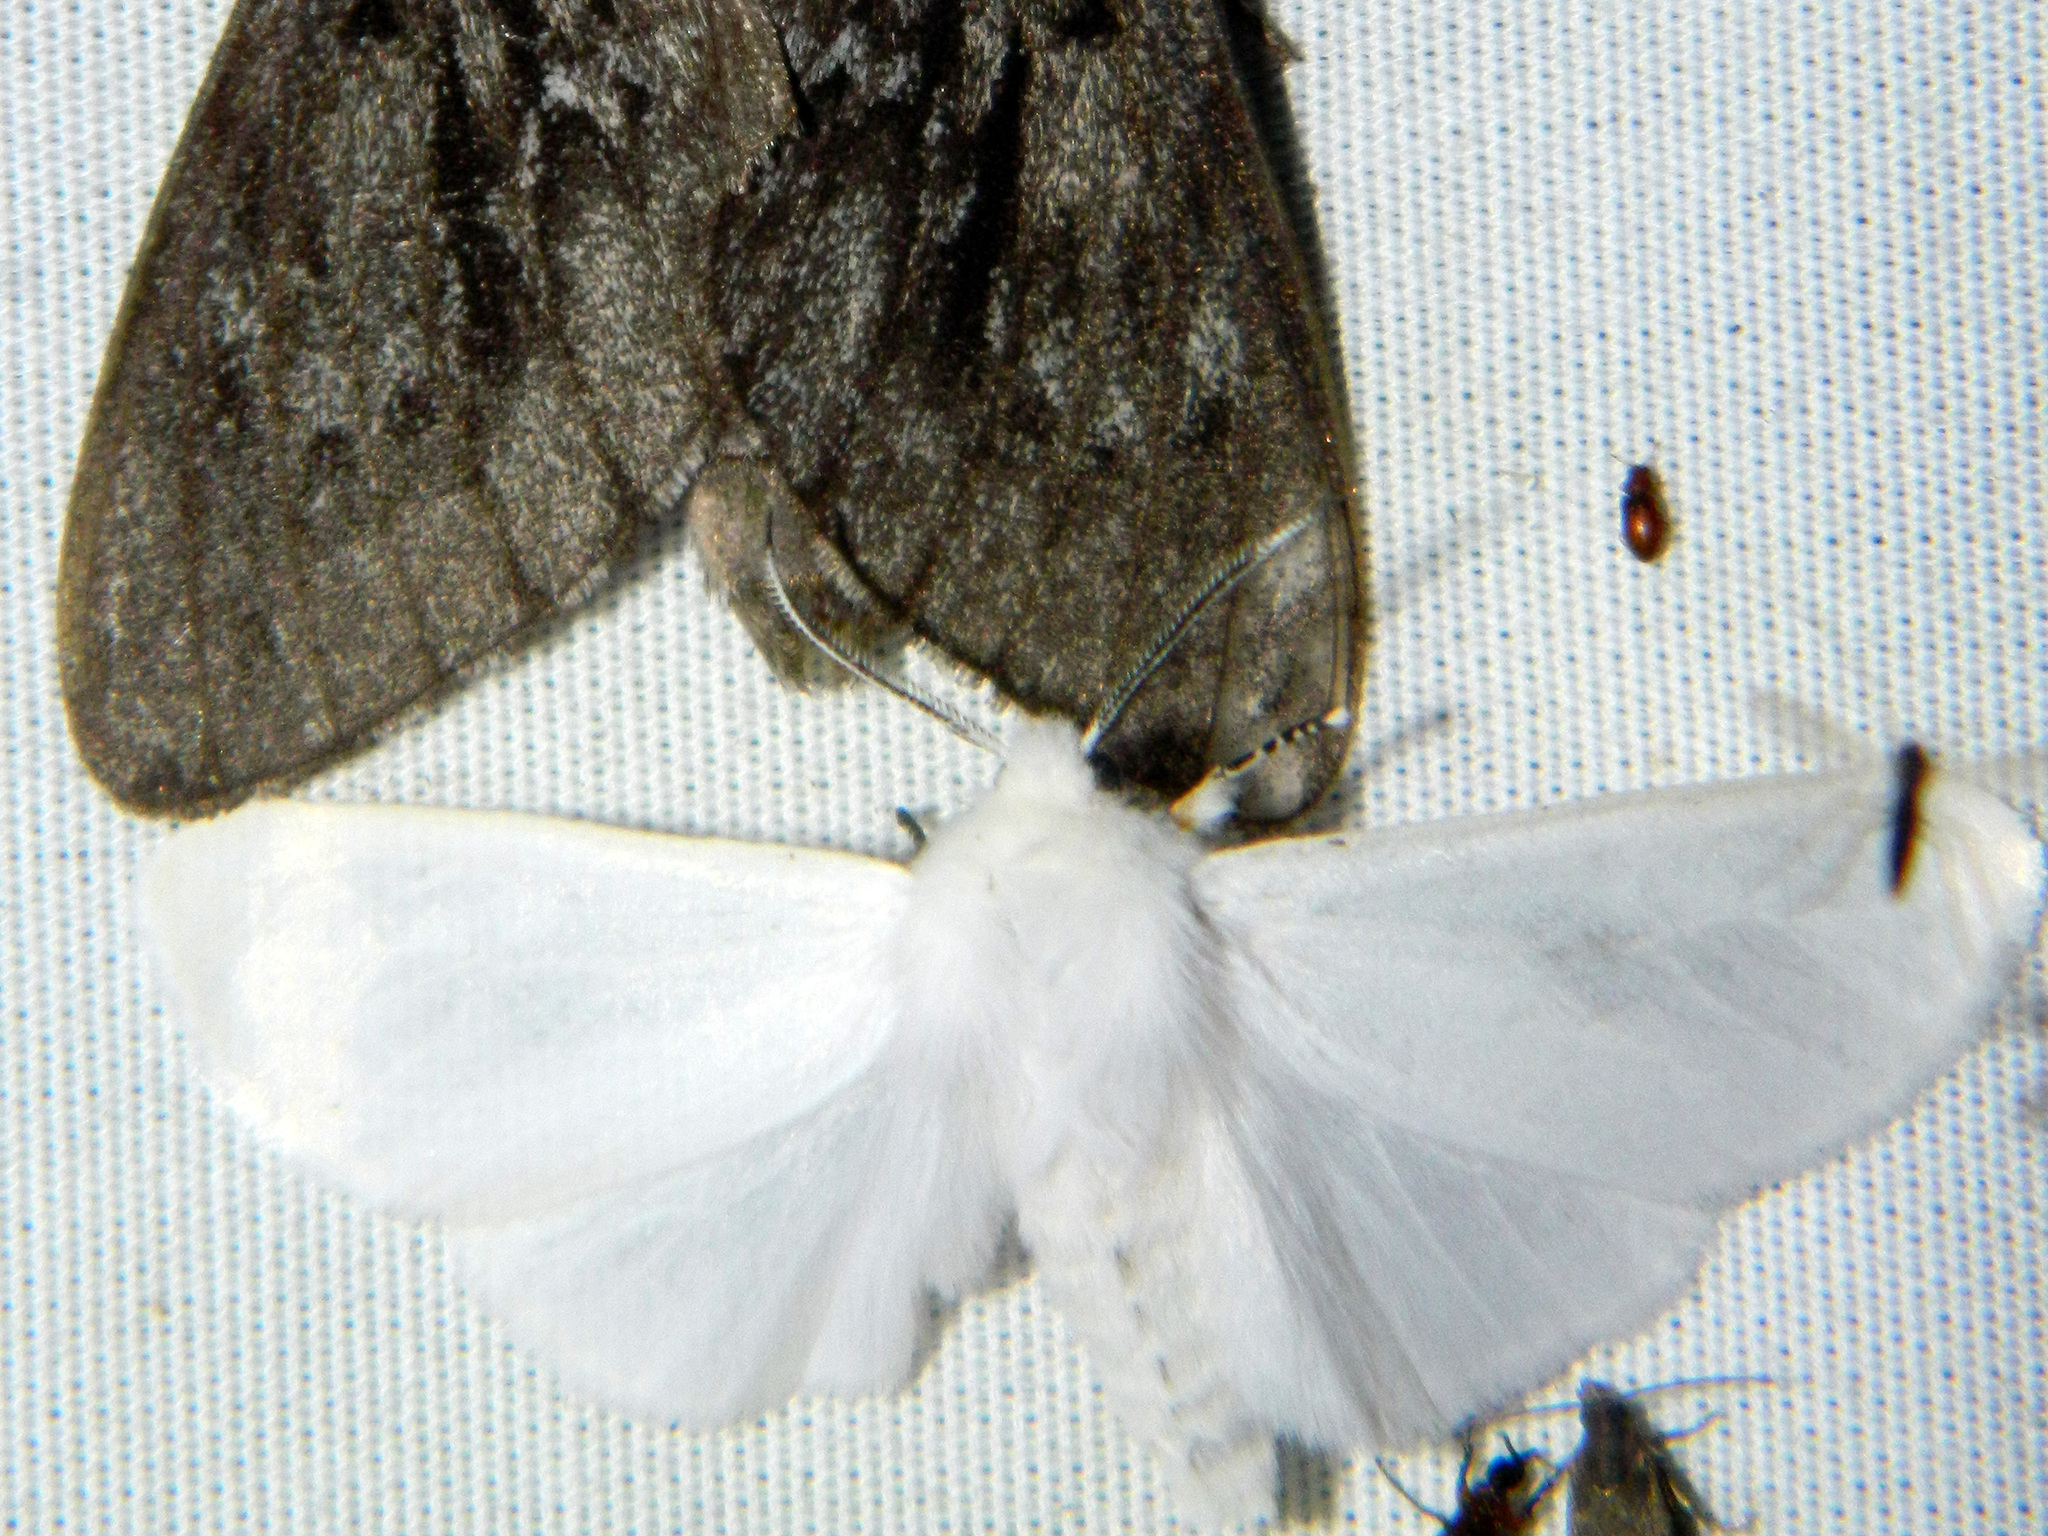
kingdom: Animalia
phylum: Arthropoda
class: Insecta
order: Lepidoptera
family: Erebidae
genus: Hyphantria
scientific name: Hyphantria cunea
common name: American white moth
